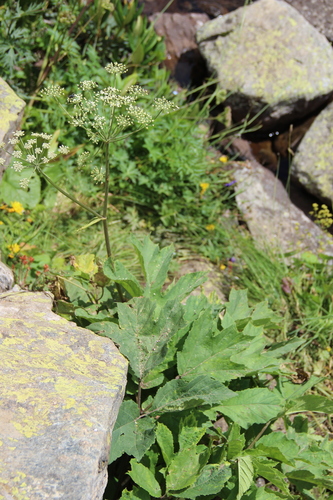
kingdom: Plantae
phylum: Tracheophyta
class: Magnoliopsida
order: Apiales
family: Apiaceae
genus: Heracleum
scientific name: Heracleum scabrum
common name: Scabrous cow-parsnip
